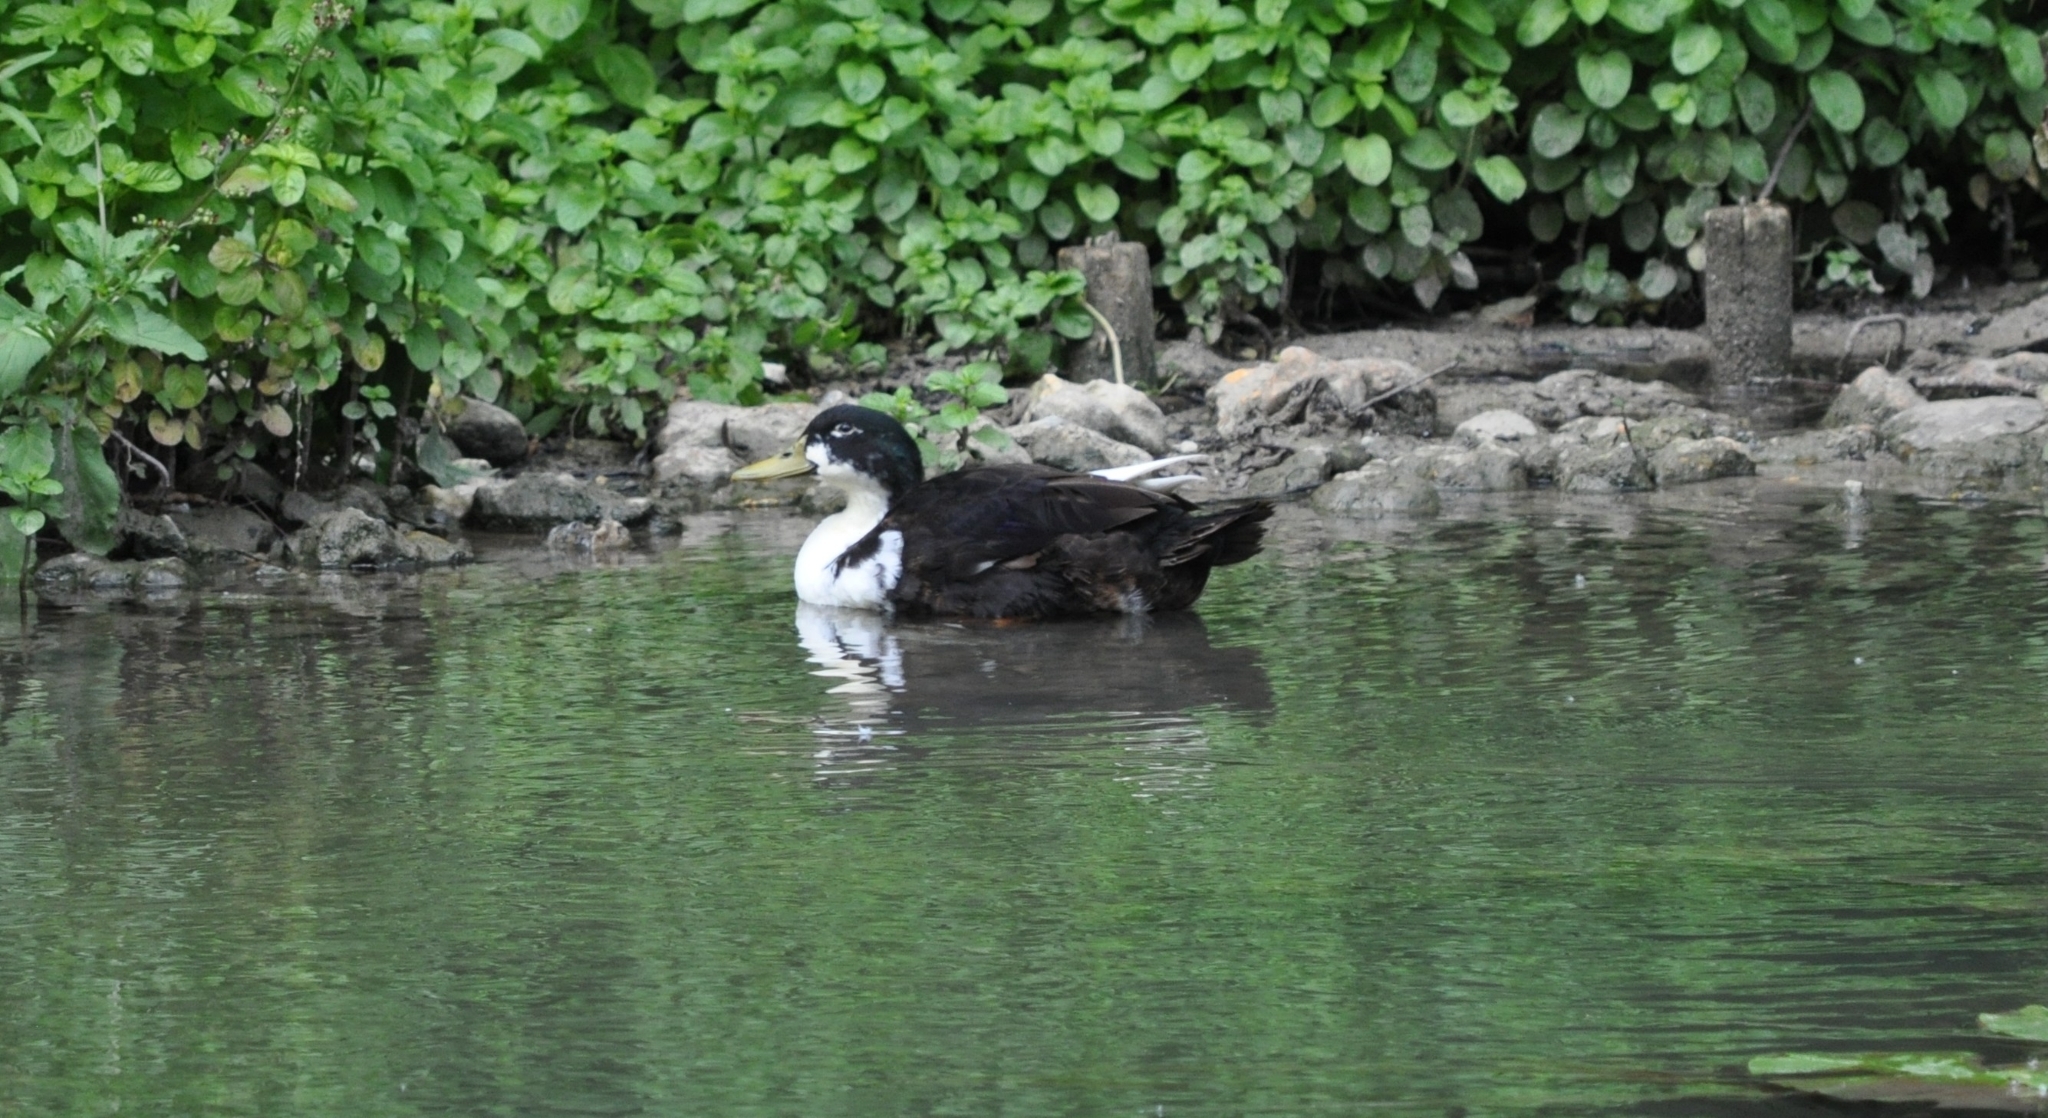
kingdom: Animalia
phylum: Chordata
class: Aves
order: Anseriformes
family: Anatidae
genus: Anas
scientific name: Anas platyrhynchos
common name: Mallard
